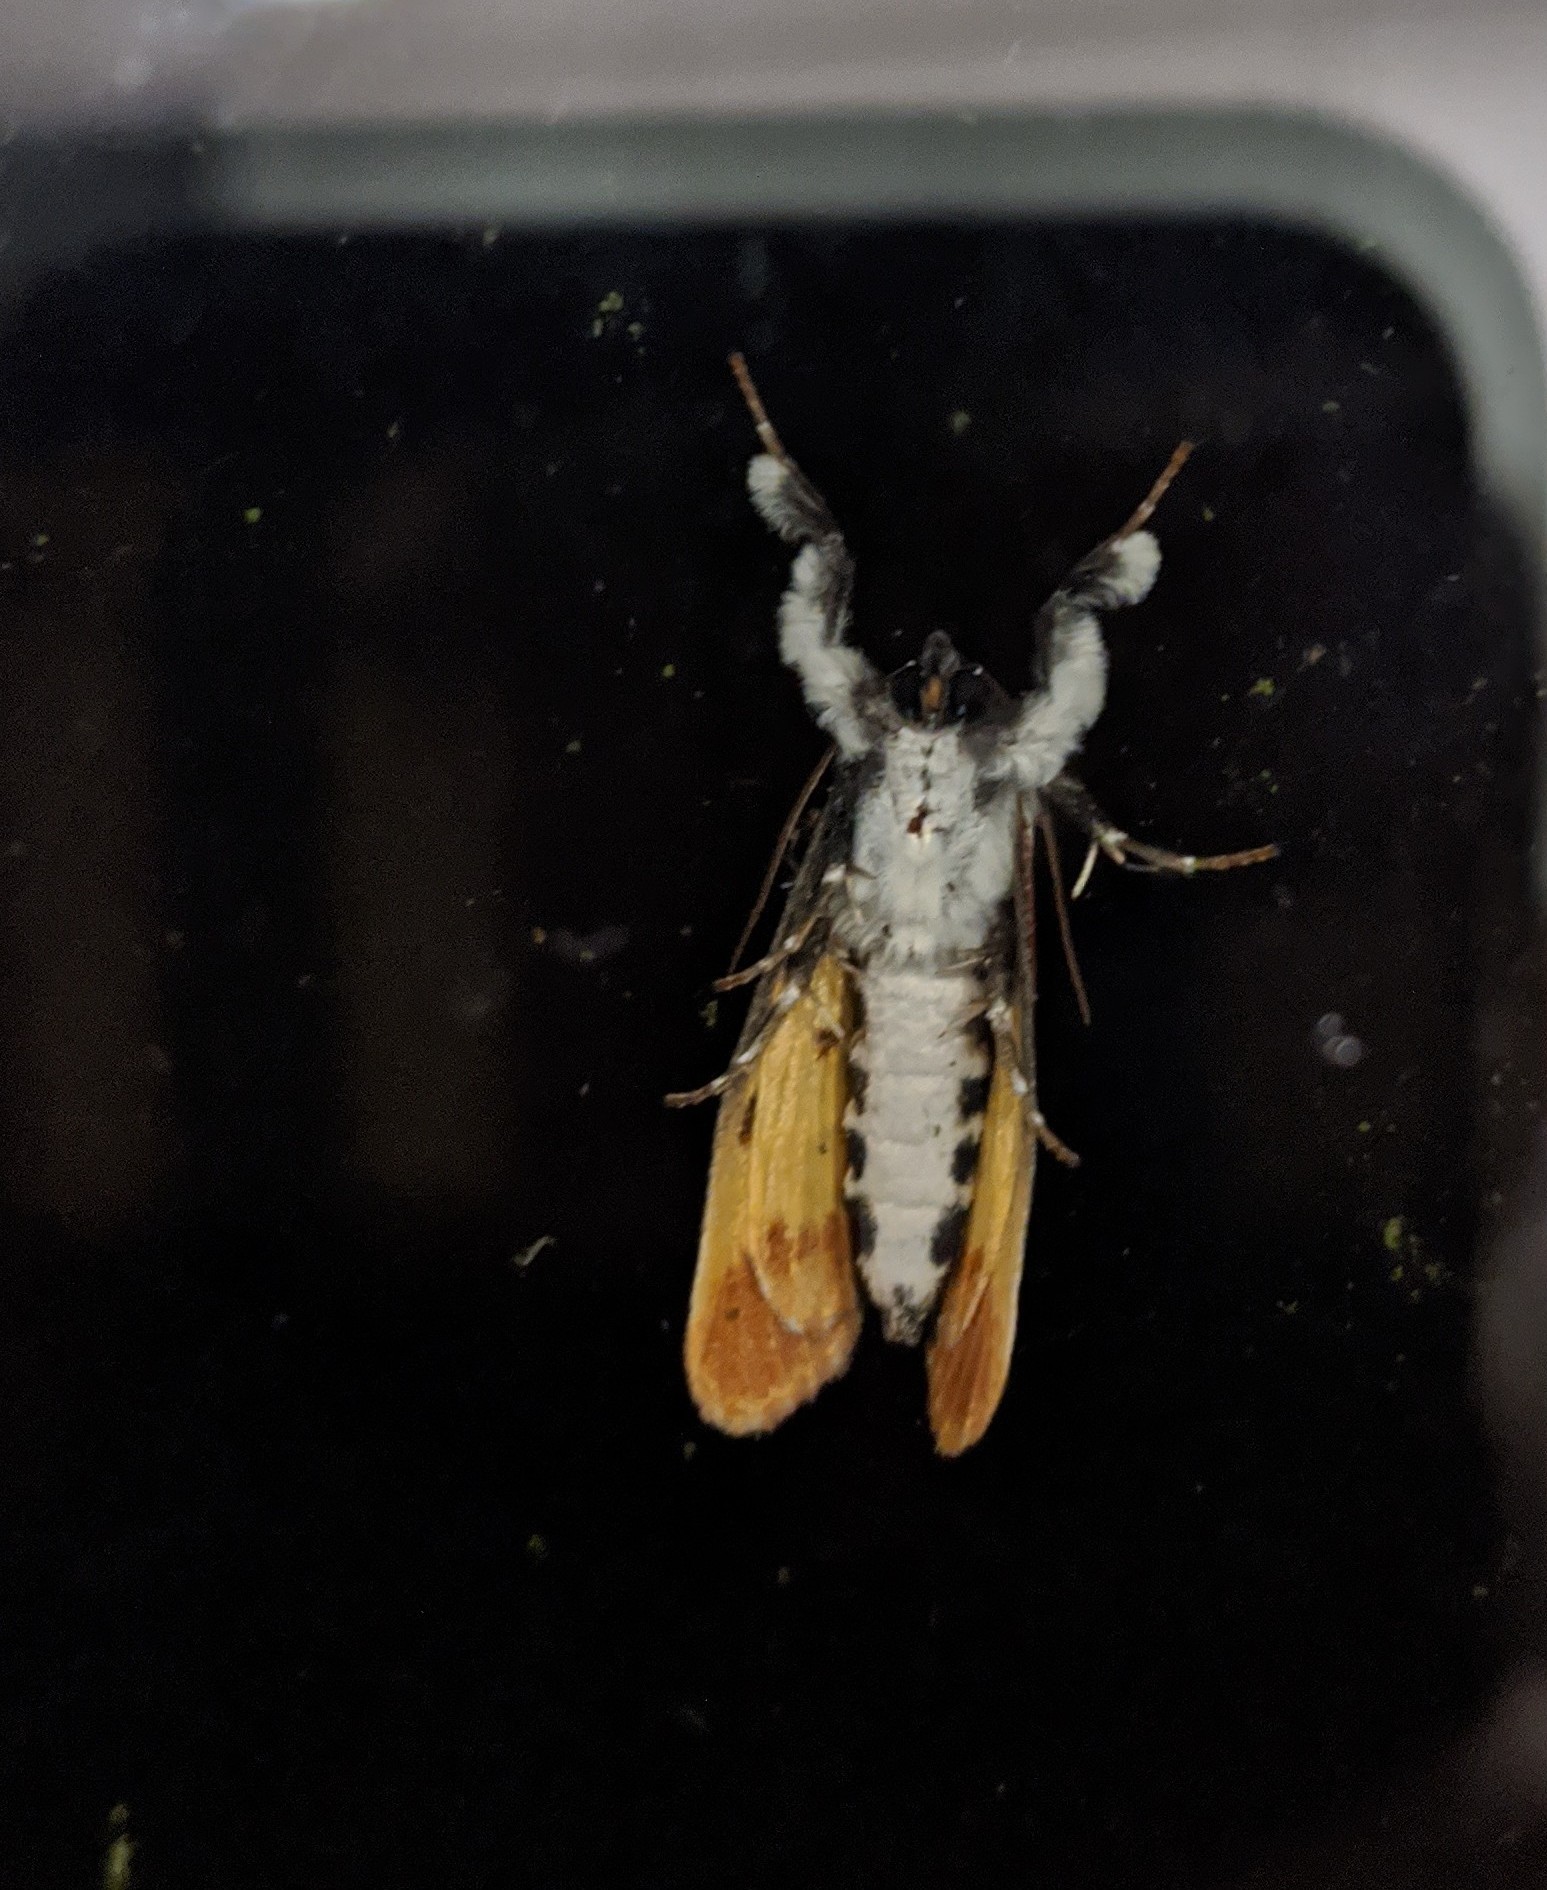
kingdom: Animalia
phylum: Arthropoda
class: Insecta
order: Lepidoptera
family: Noctuidae
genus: Eudryas
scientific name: Eudryas unio
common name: Pearly wood-nymph
